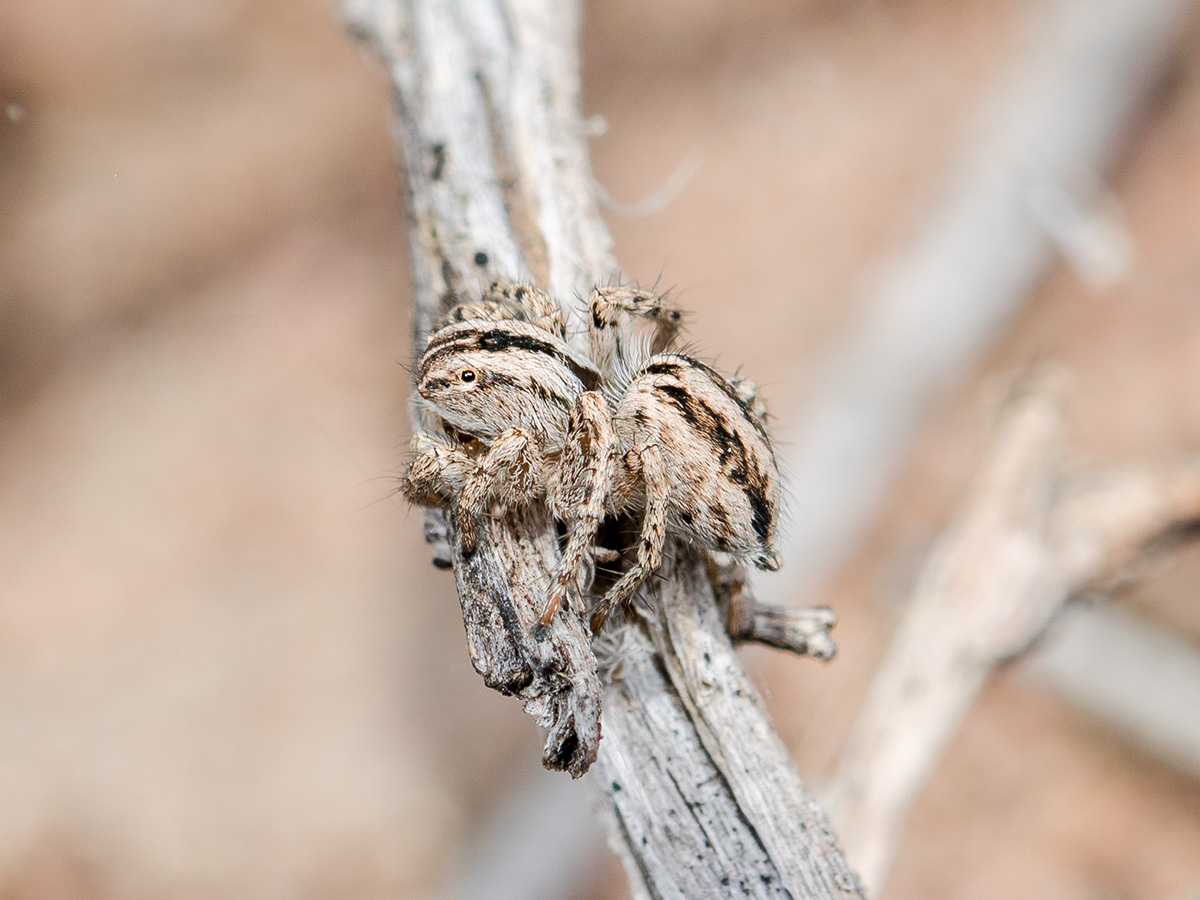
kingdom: Animalia
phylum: Arthropoda
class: Arachnida
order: Araneae
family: Salticidae
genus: Aelurillus
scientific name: Aelurillus m-nigrum
